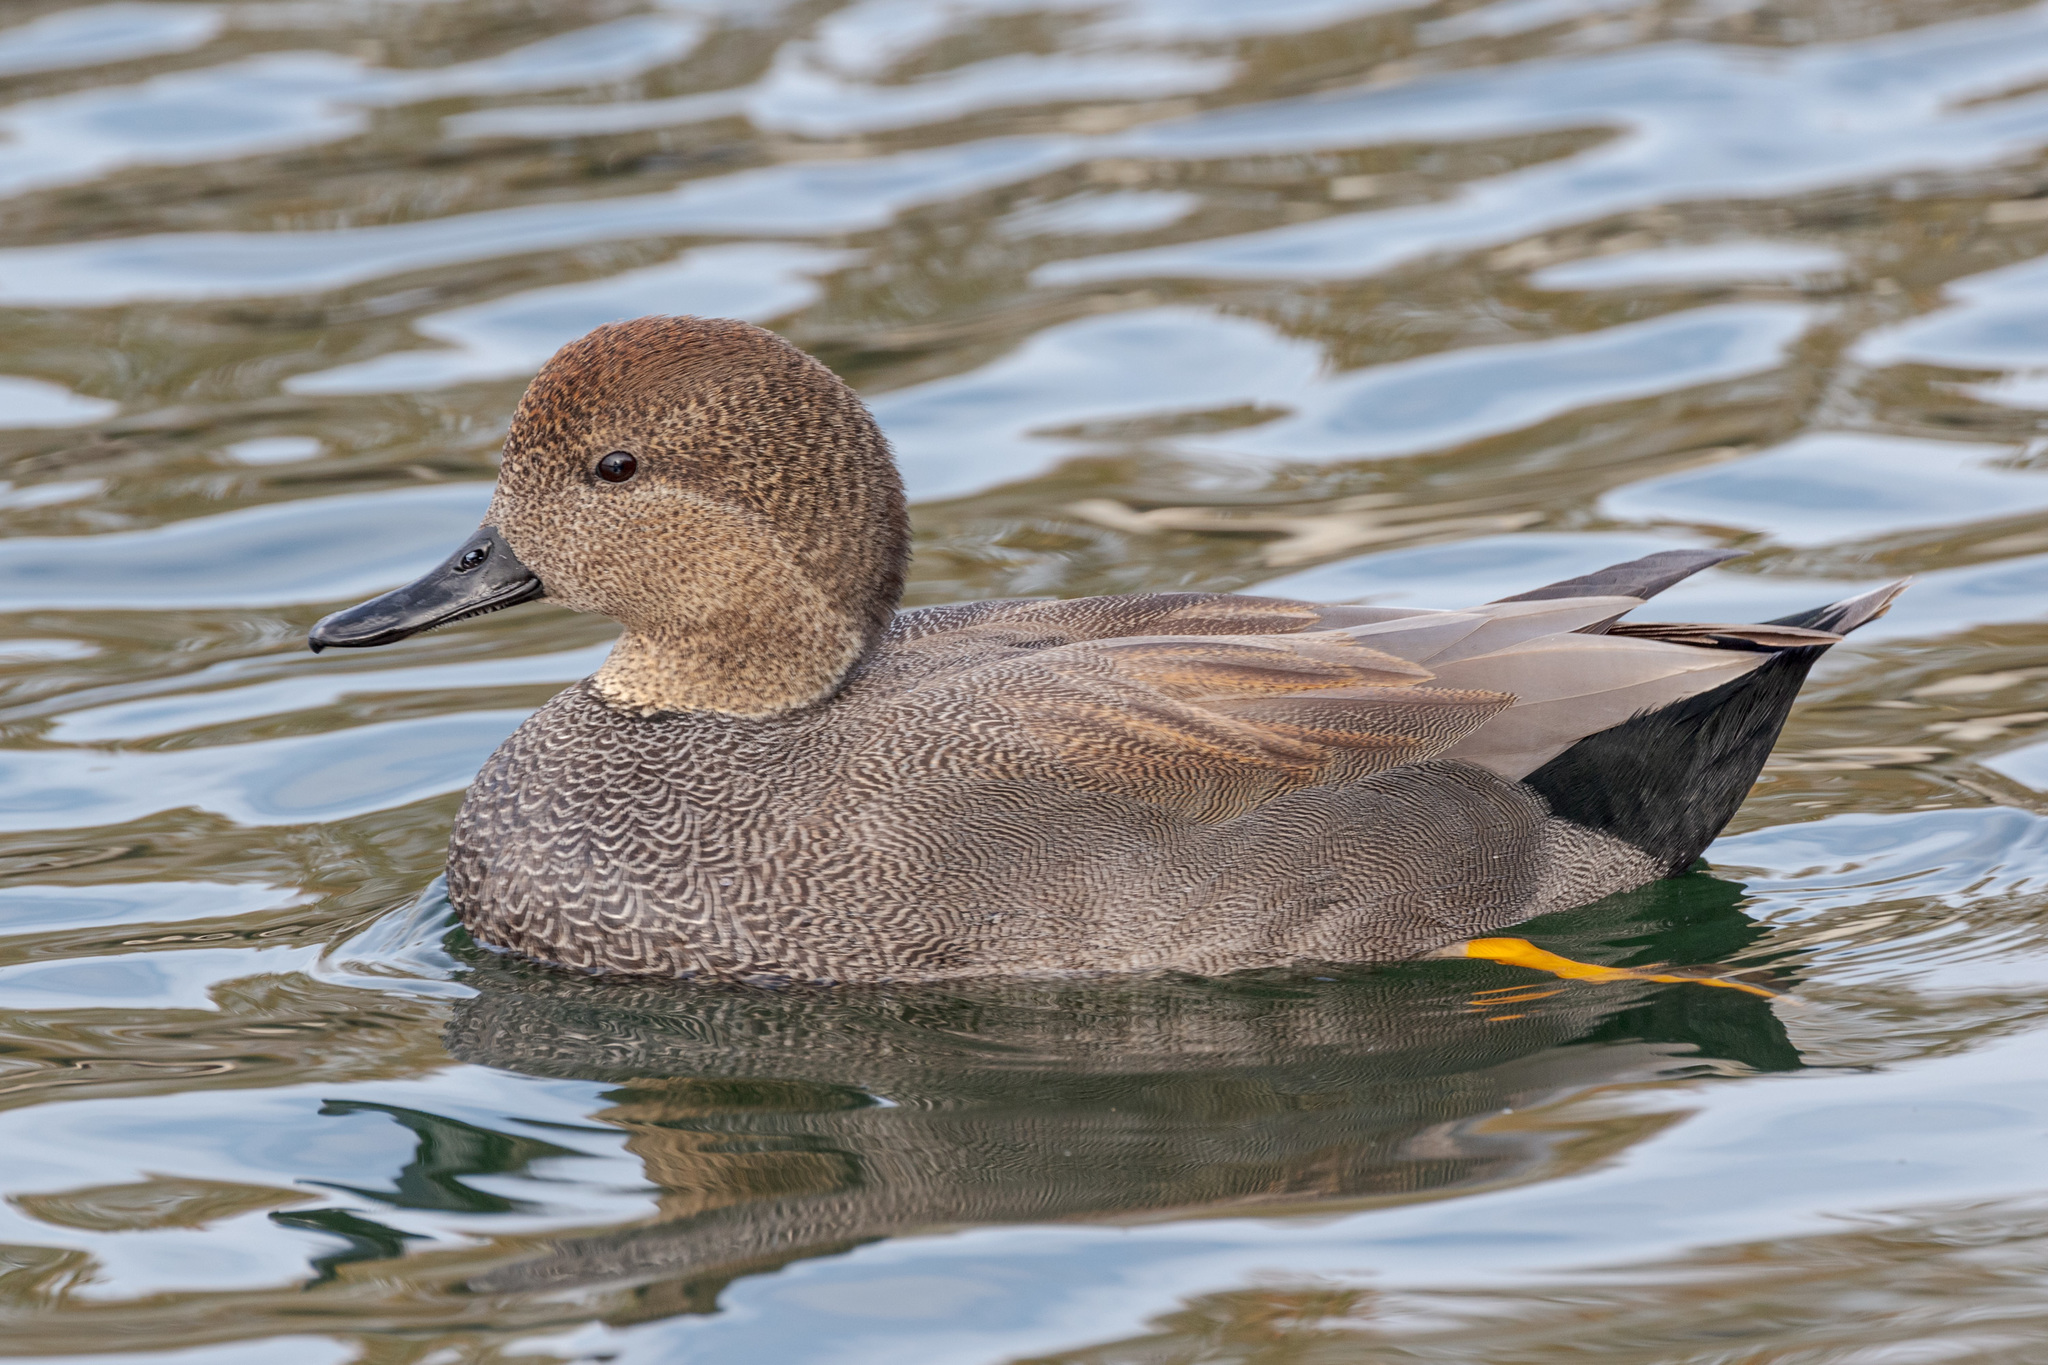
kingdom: Animalia
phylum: Chordata
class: Aves
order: Anseriformes
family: Anatidae
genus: Mareca
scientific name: Mareca strepera
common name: Gadwall
